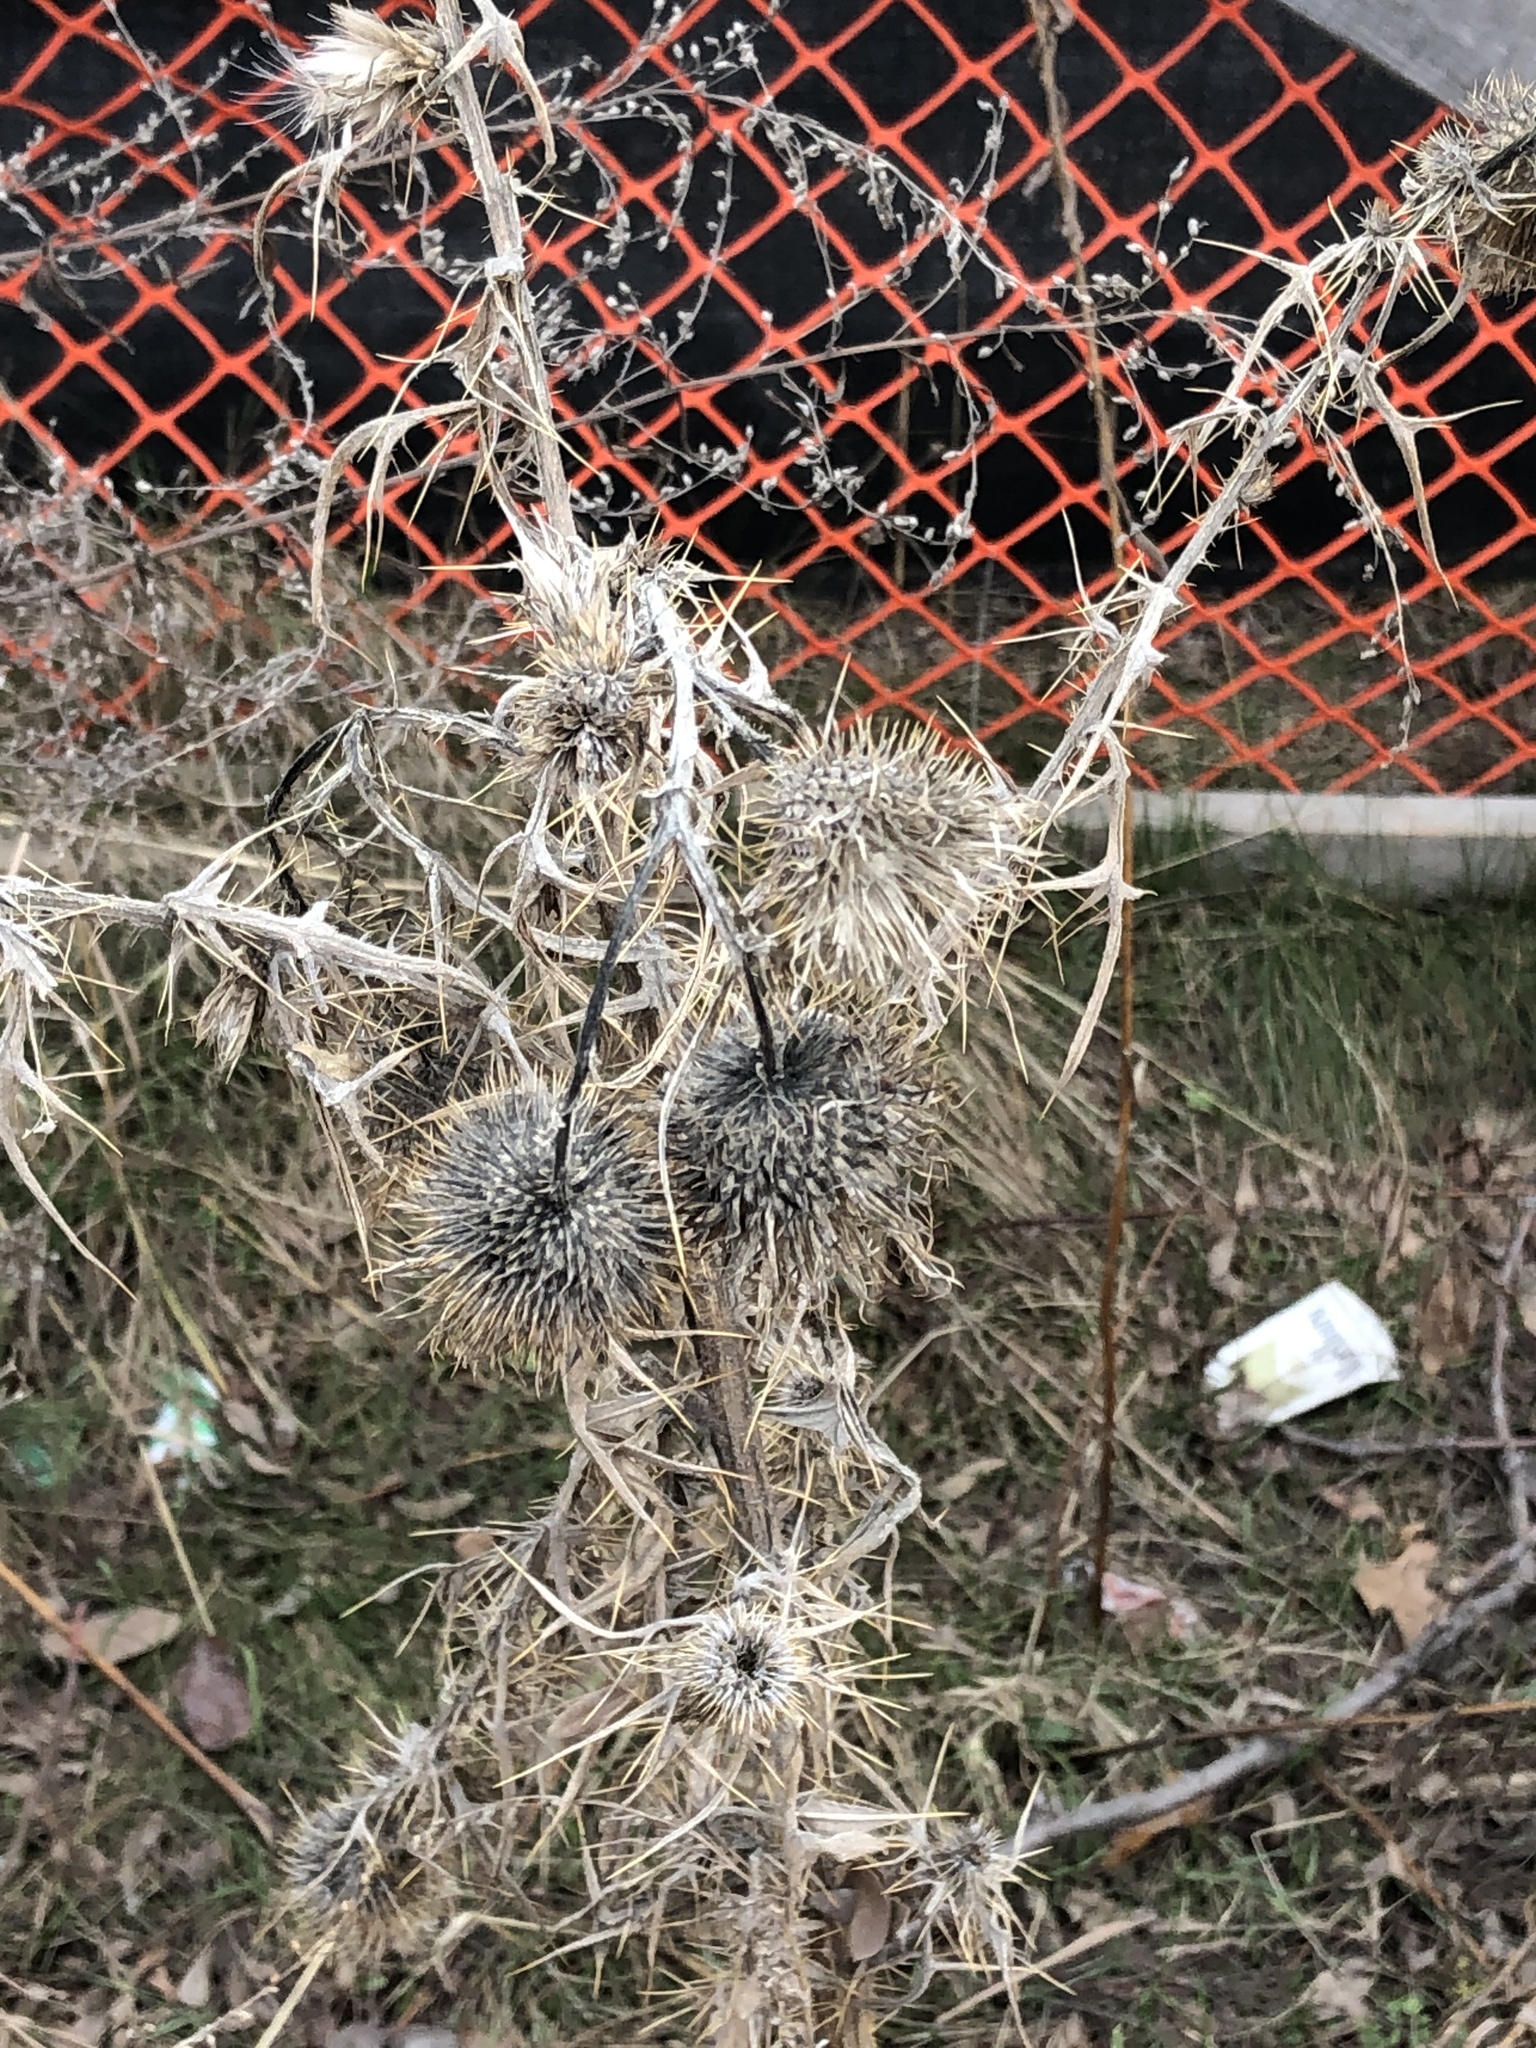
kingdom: Plantae
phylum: Tracheophyta
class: Magnoliopsida
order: Asterales
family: Asteraceae
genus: Cirsium
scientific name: Cirsium vulgare
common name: Bull thistle
